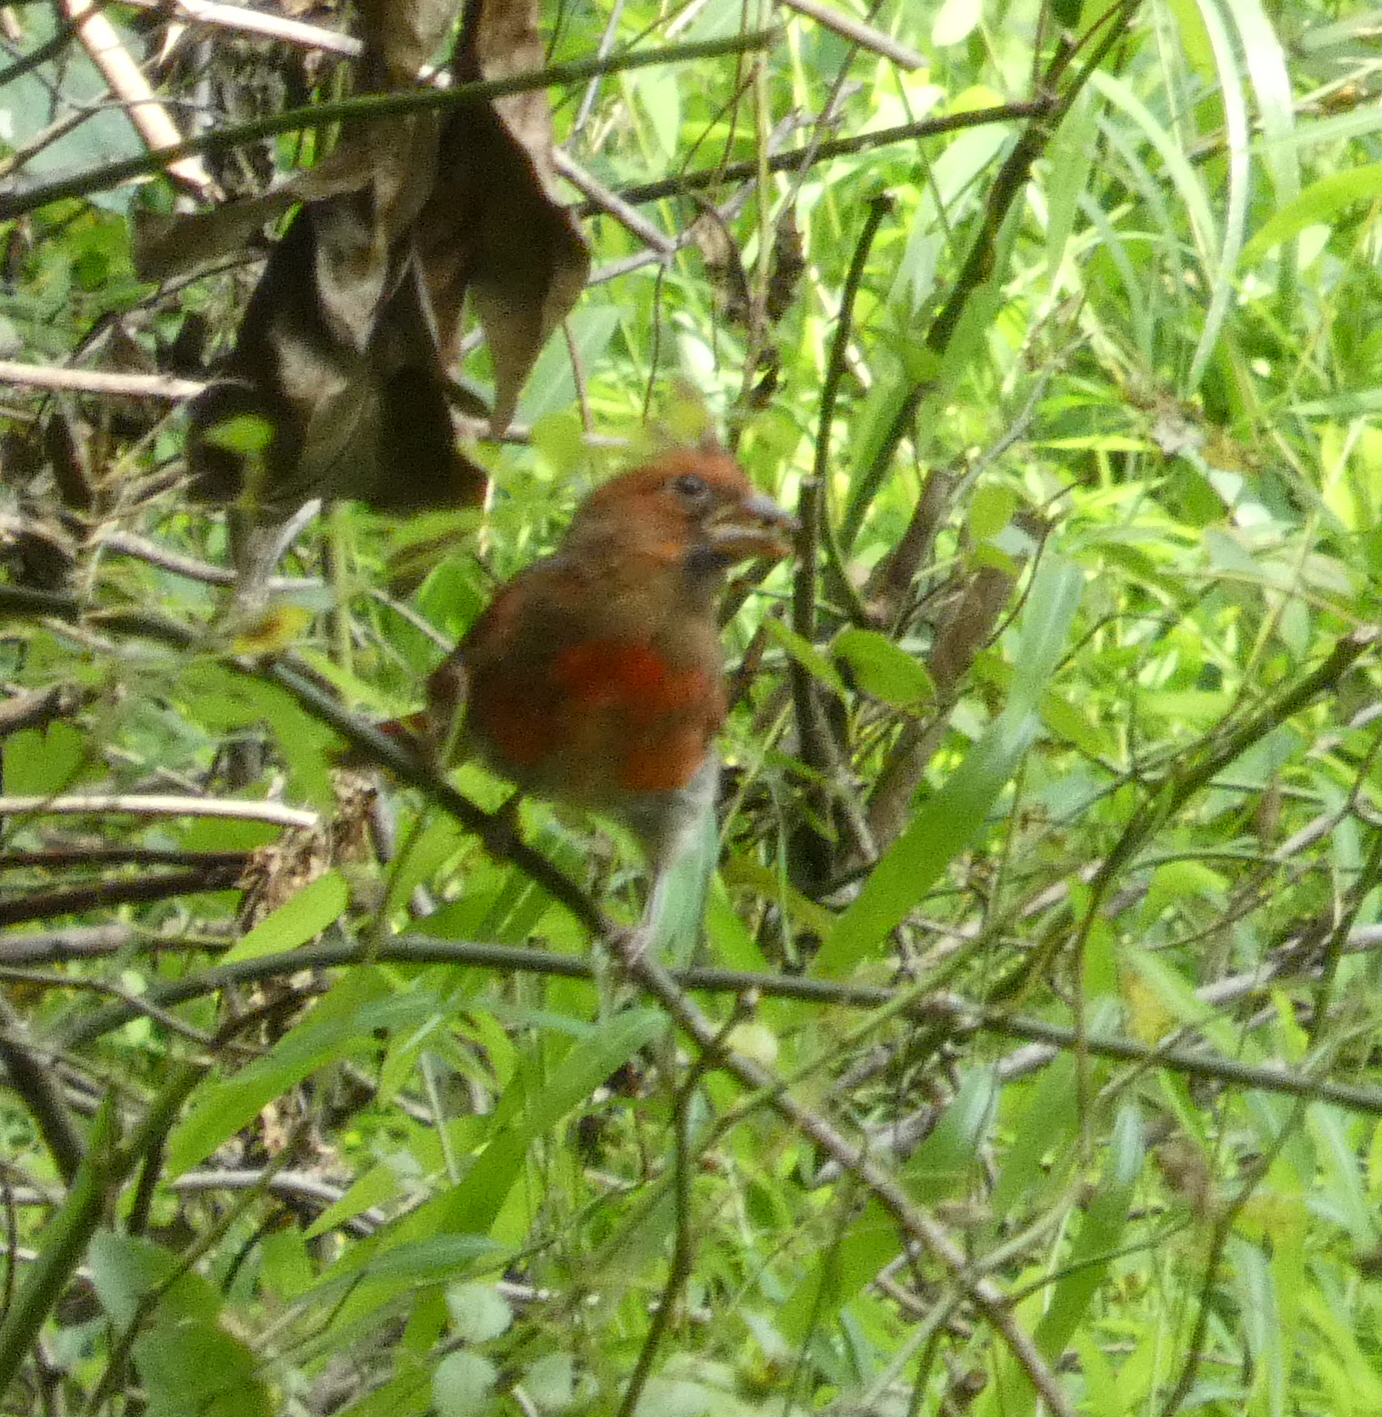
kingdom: Animalia
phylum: Chordata
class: Aves
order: Passeriformes
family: Cardinalidae
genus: Cardinalis
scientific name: Cardinalis cardinalis
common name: Northern cardinal
